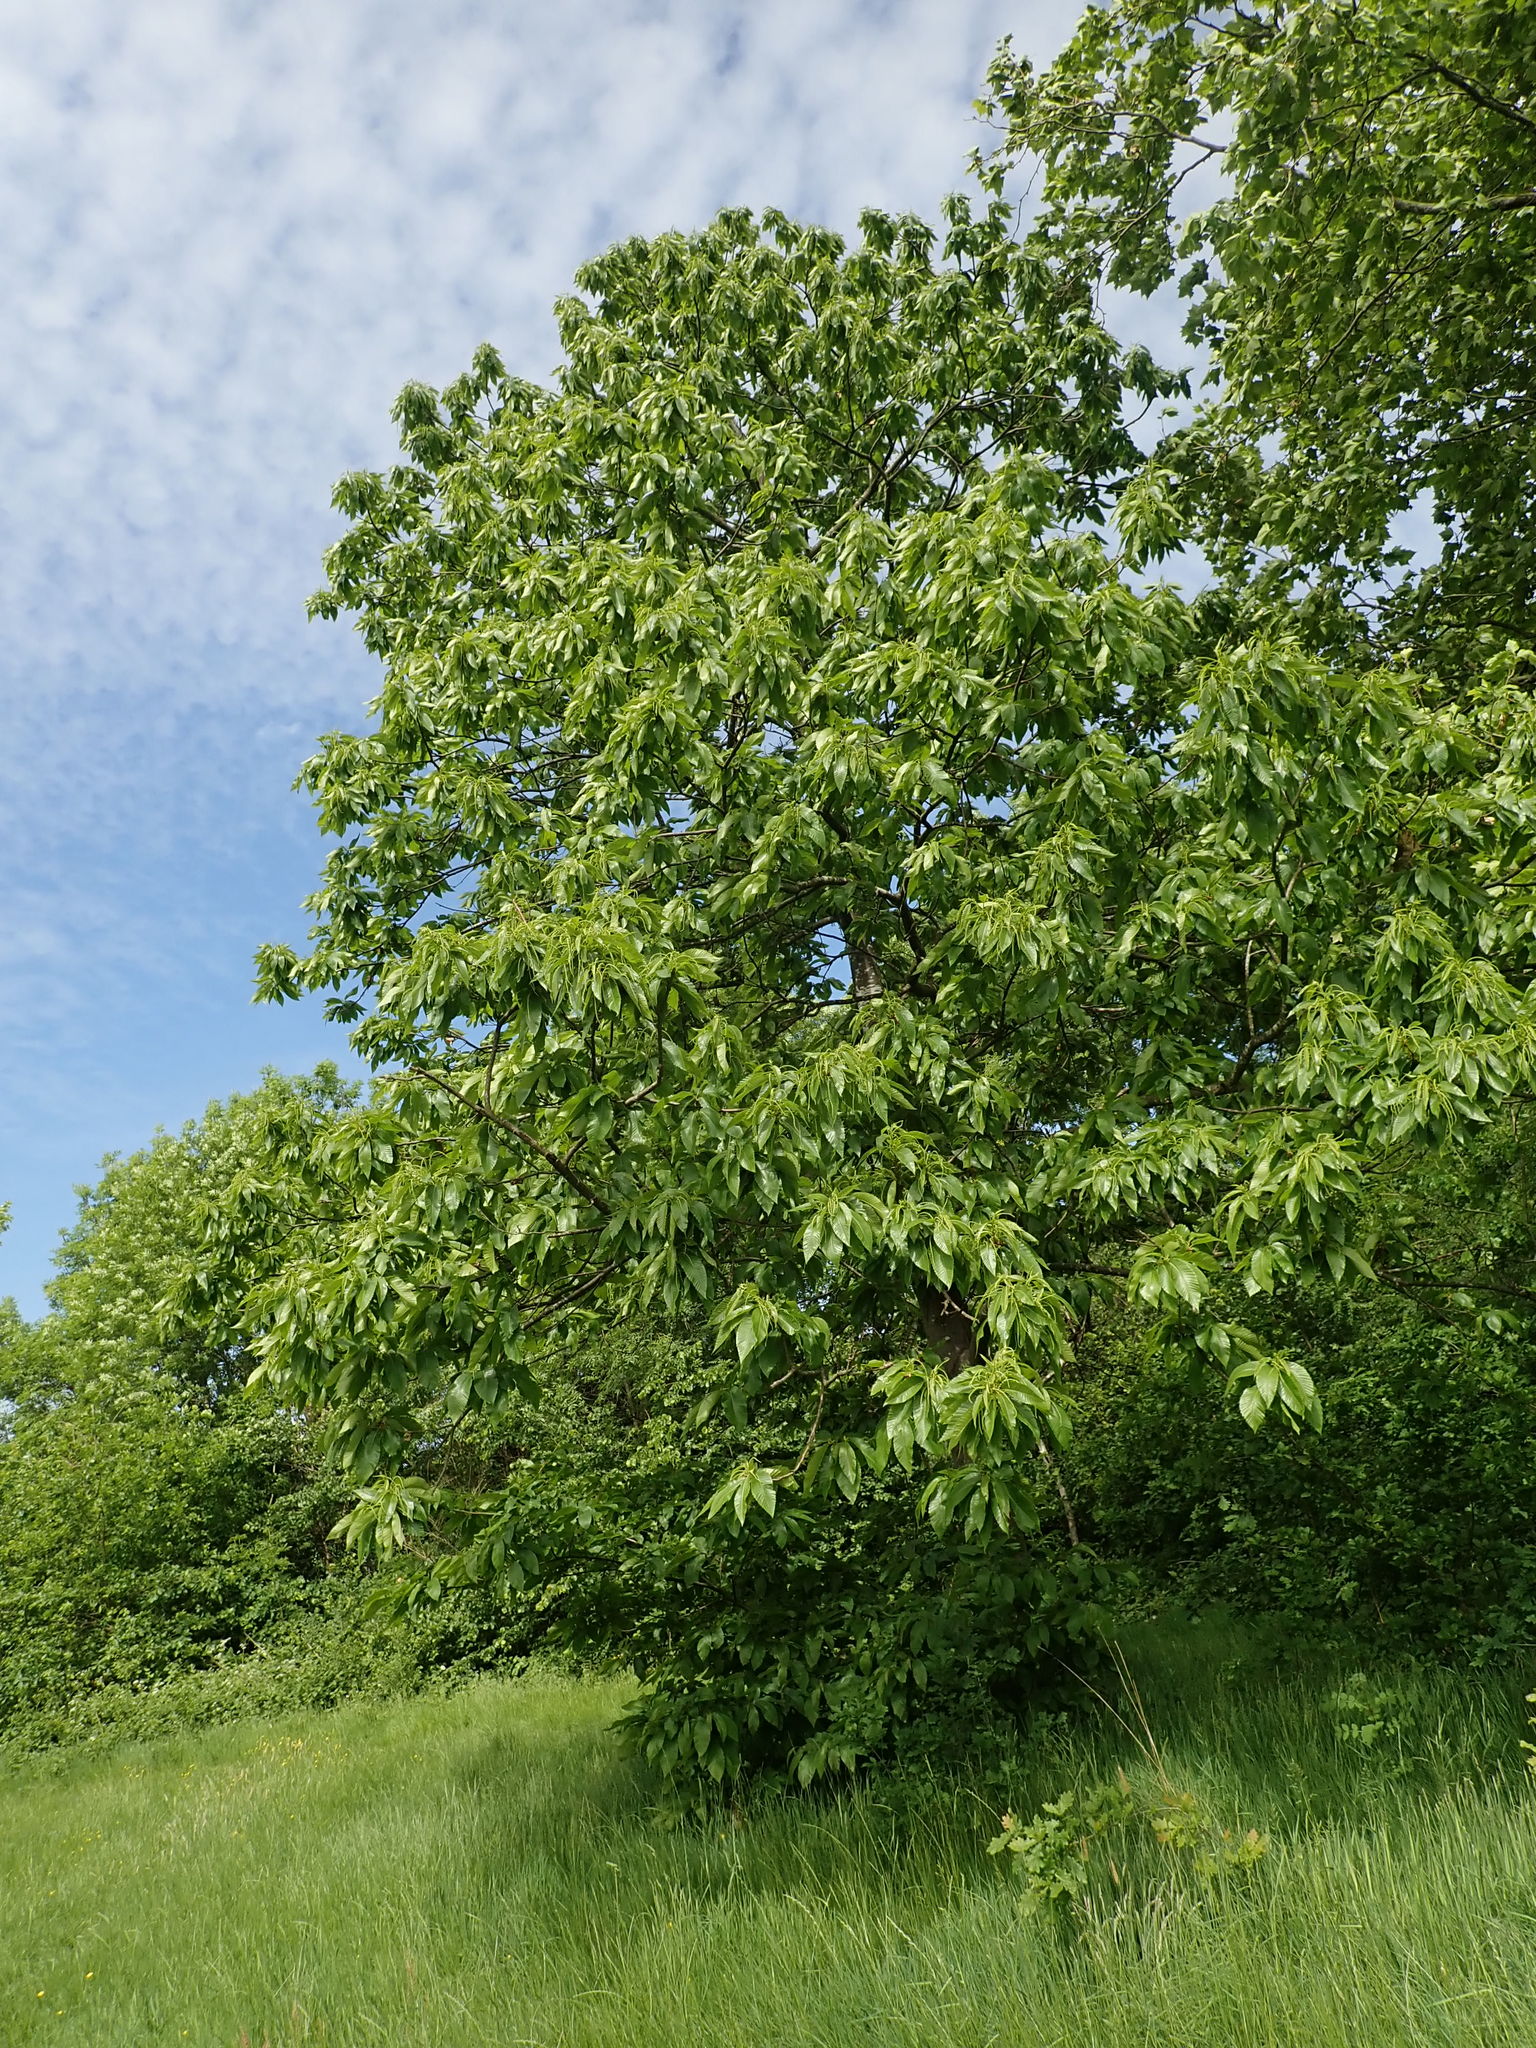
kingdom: Plantae
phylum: Tracheophyta
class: Magnoliopsida
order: Fagales
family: Fagaceae
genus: Castanea
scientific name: Castanea sativa
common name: Sweet chestnut
